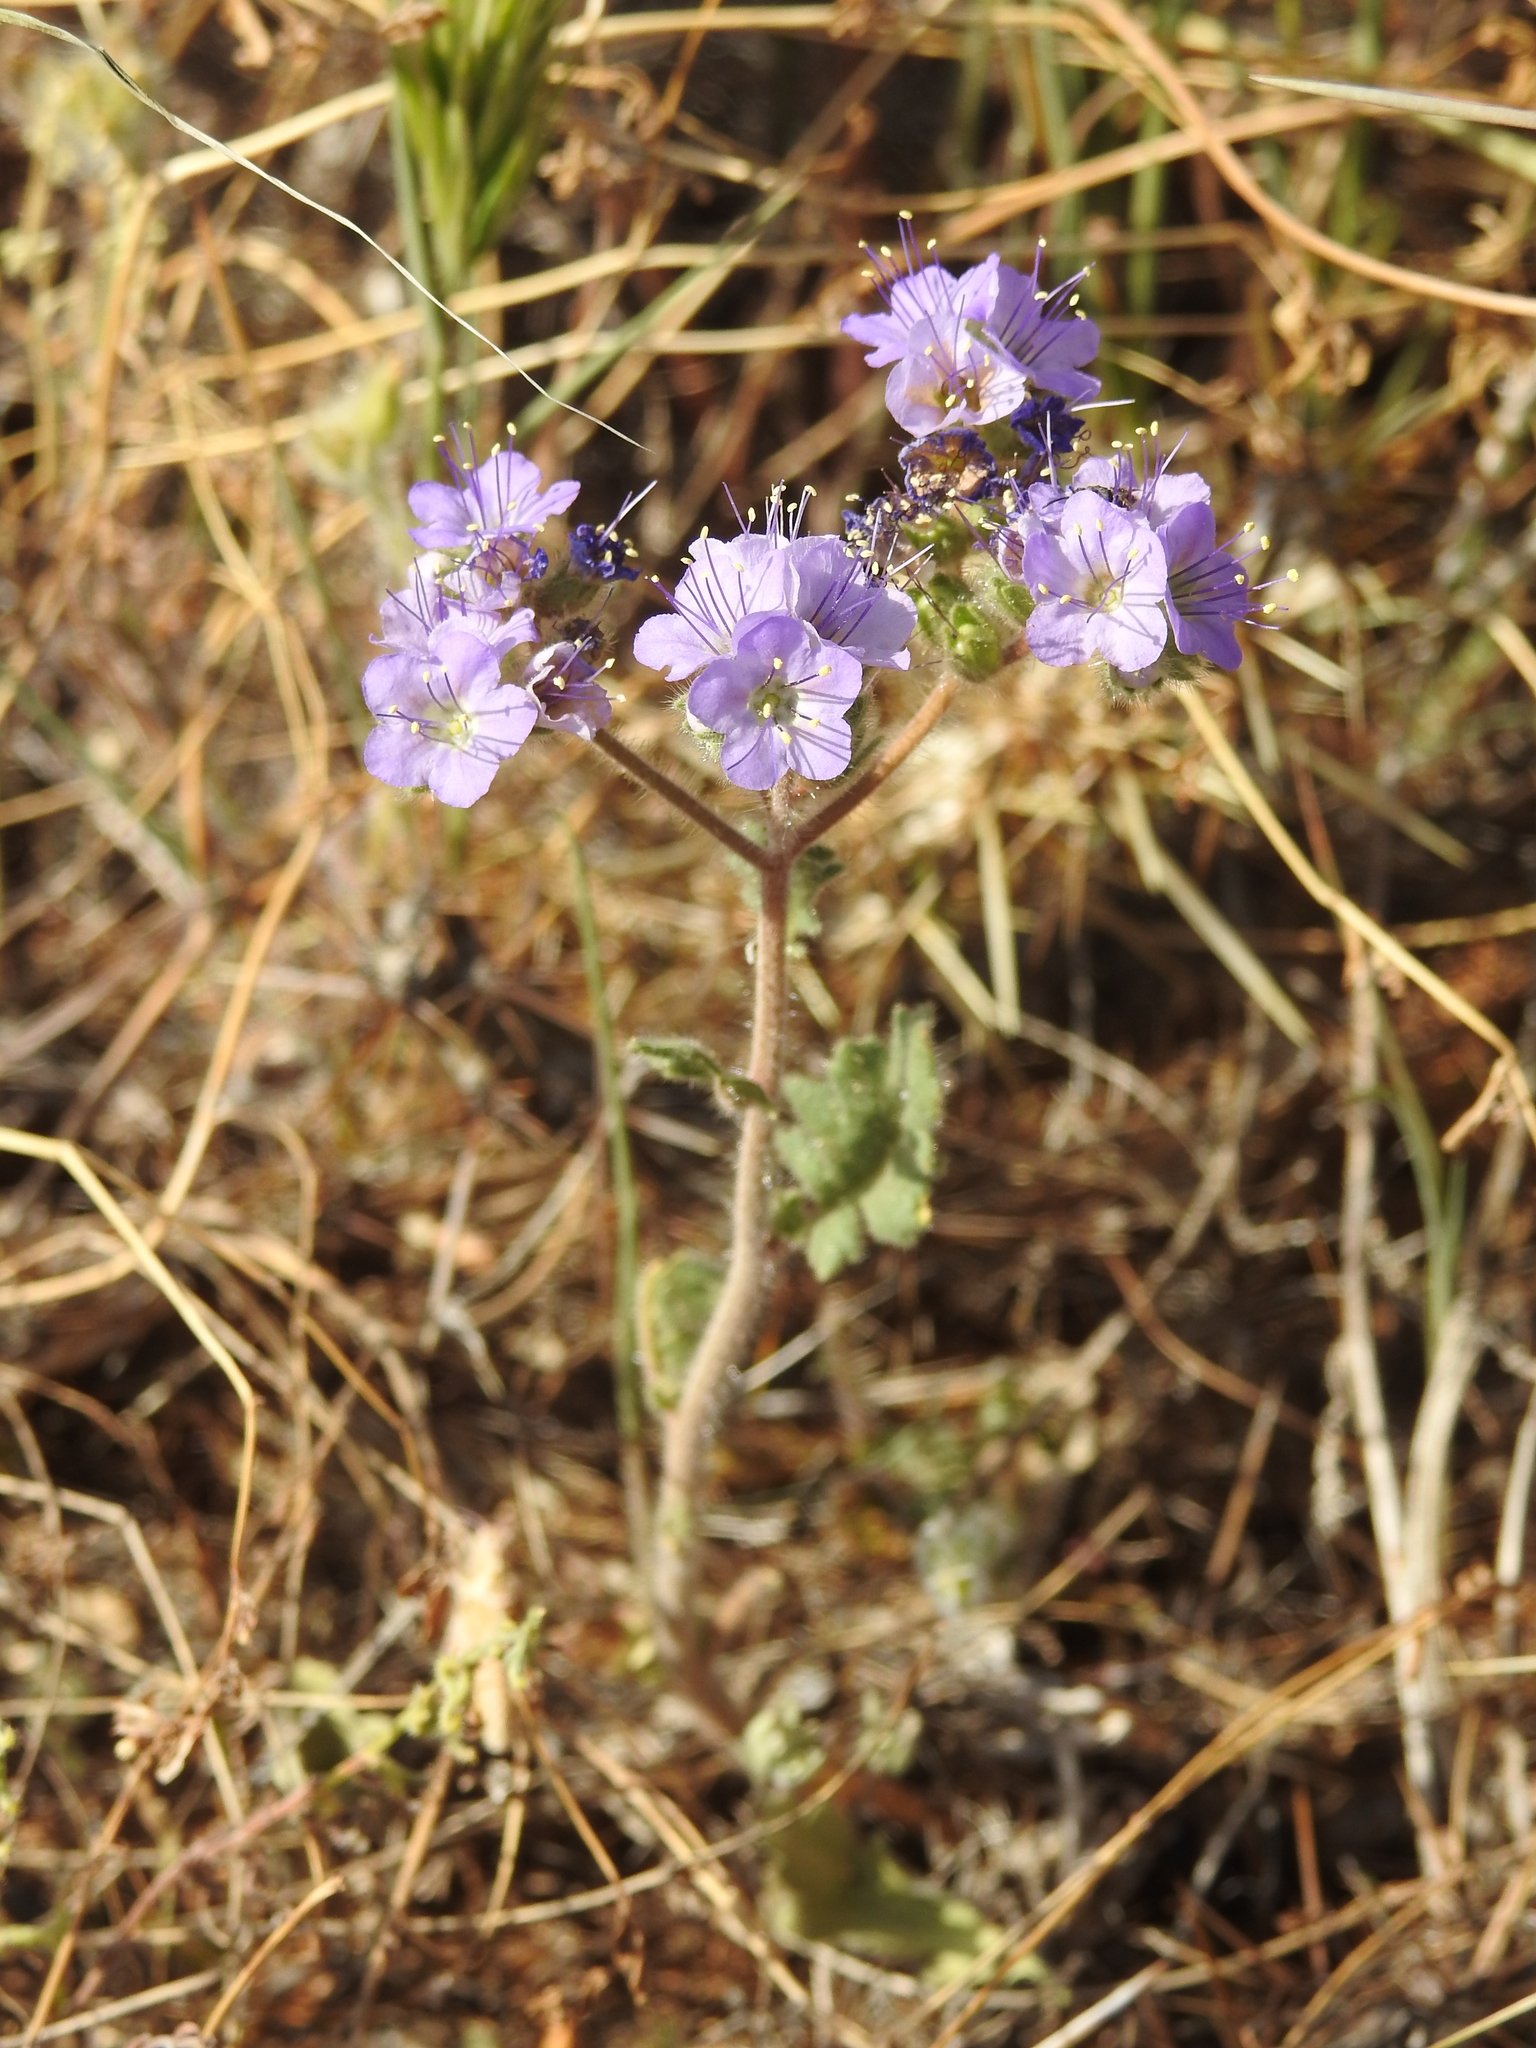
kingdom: Plantae
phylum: Tracheophyta
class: Magnoliopsida
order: Boraginales
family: Hydrophyllaceae
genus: Phacelia
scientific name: Phacelia crenulata
